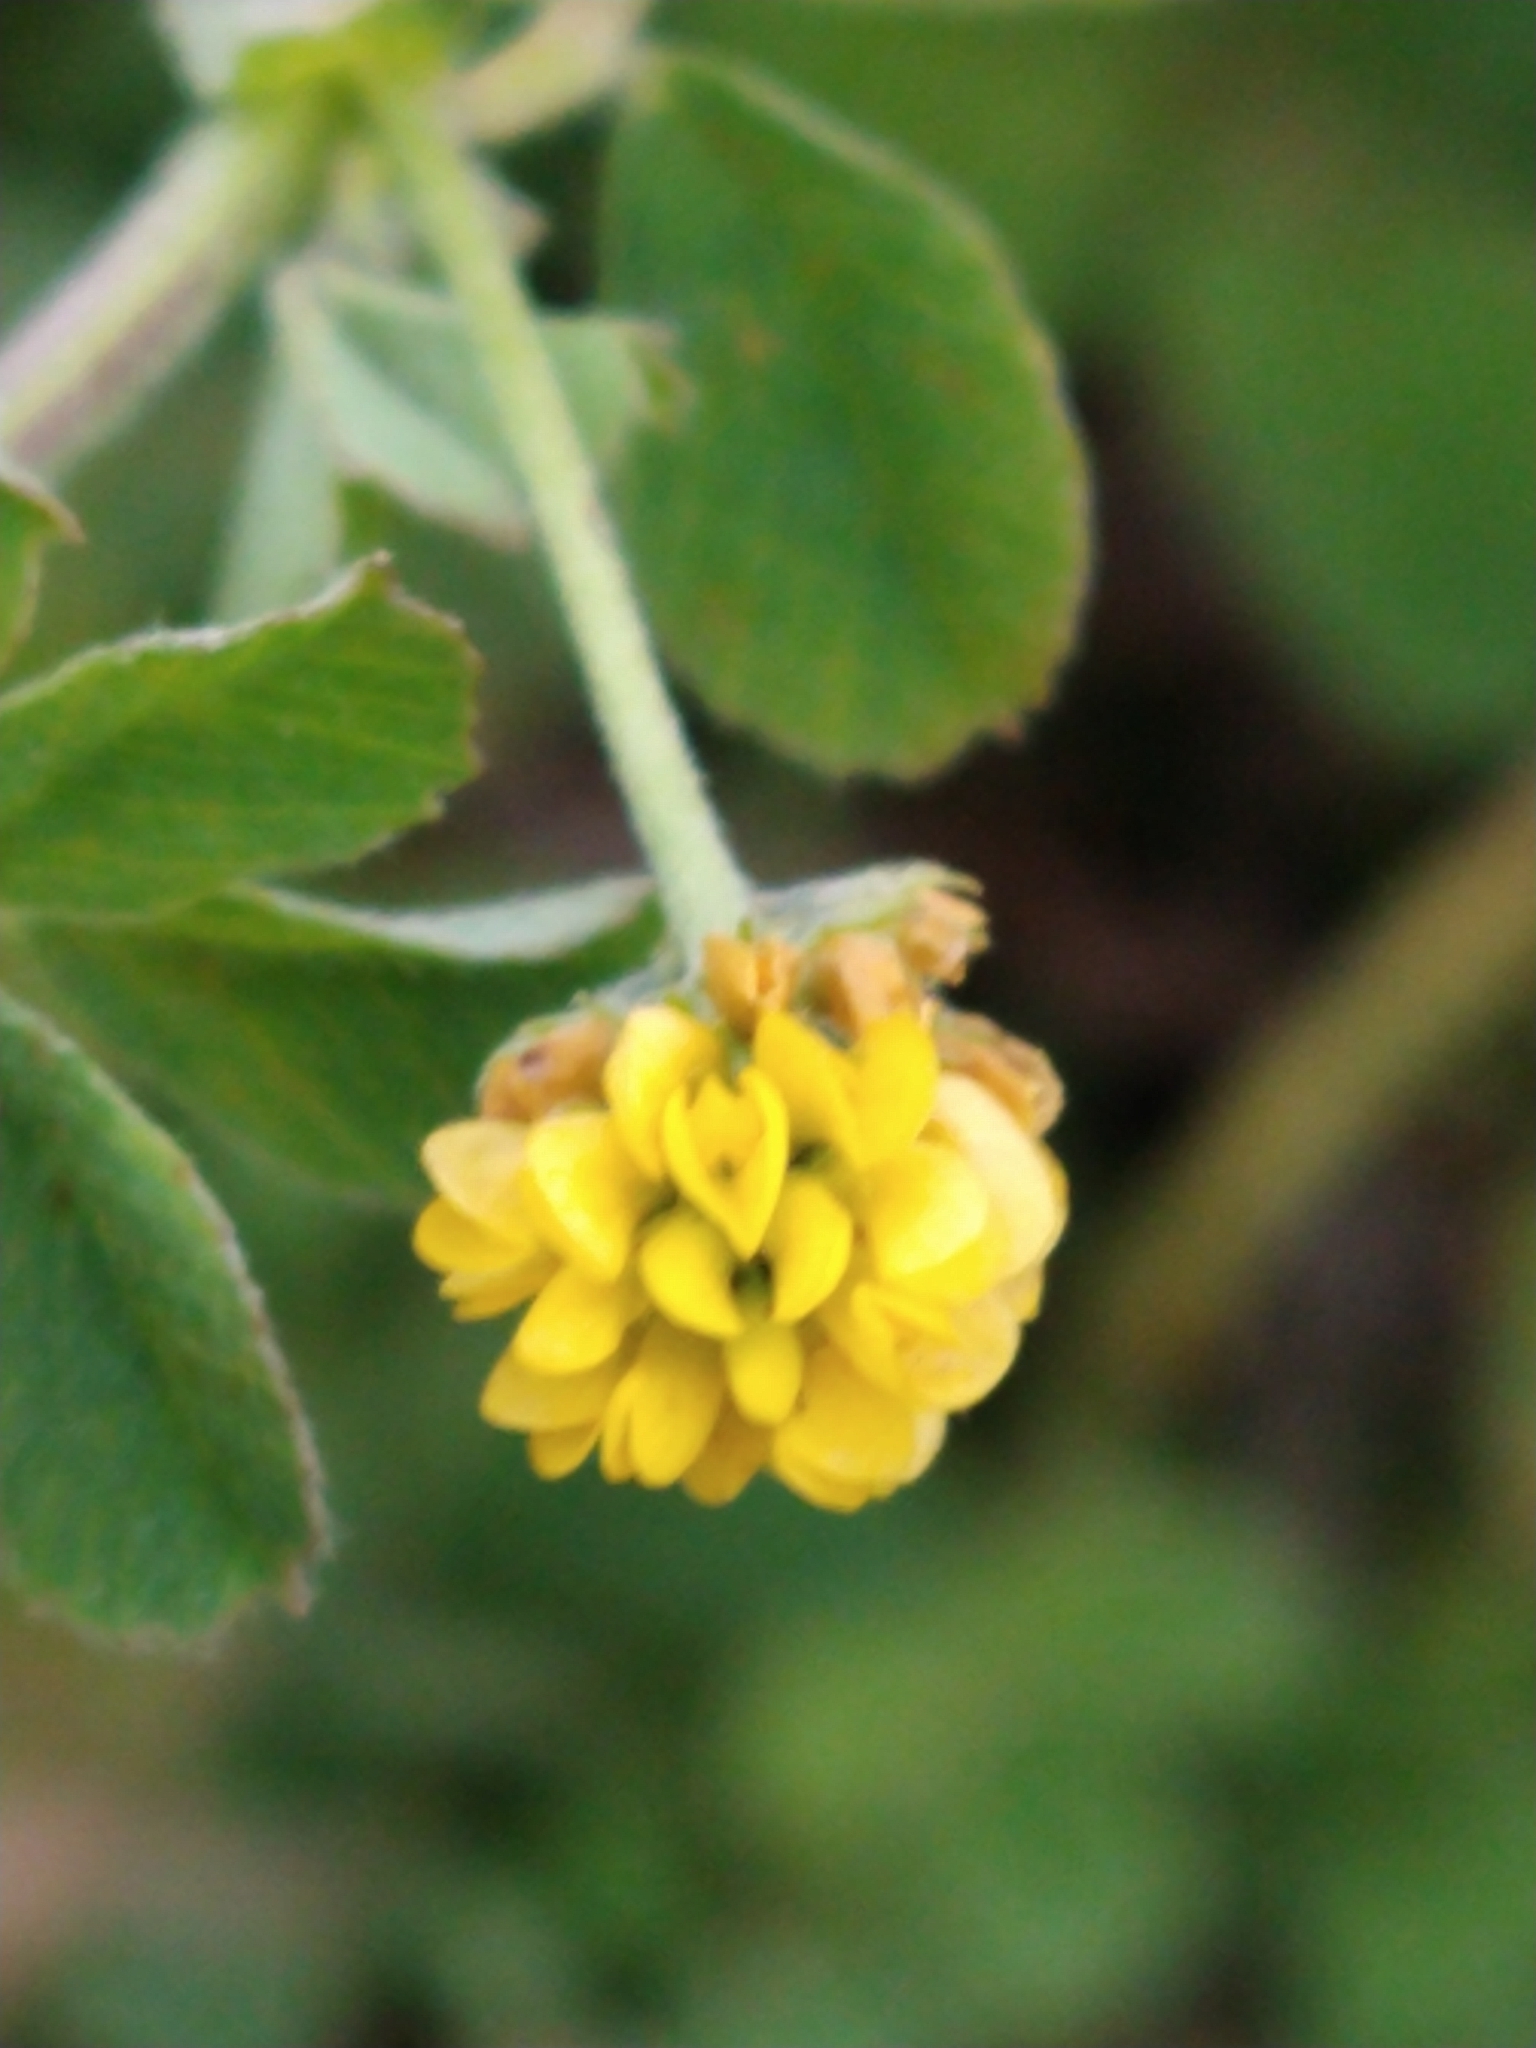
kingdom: Plantae
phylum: Tracheophyta
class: Magnoliopsida
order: Fabales
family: Fabaceae
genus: Medicago
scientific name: Medicago lupulina
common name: Black medick
